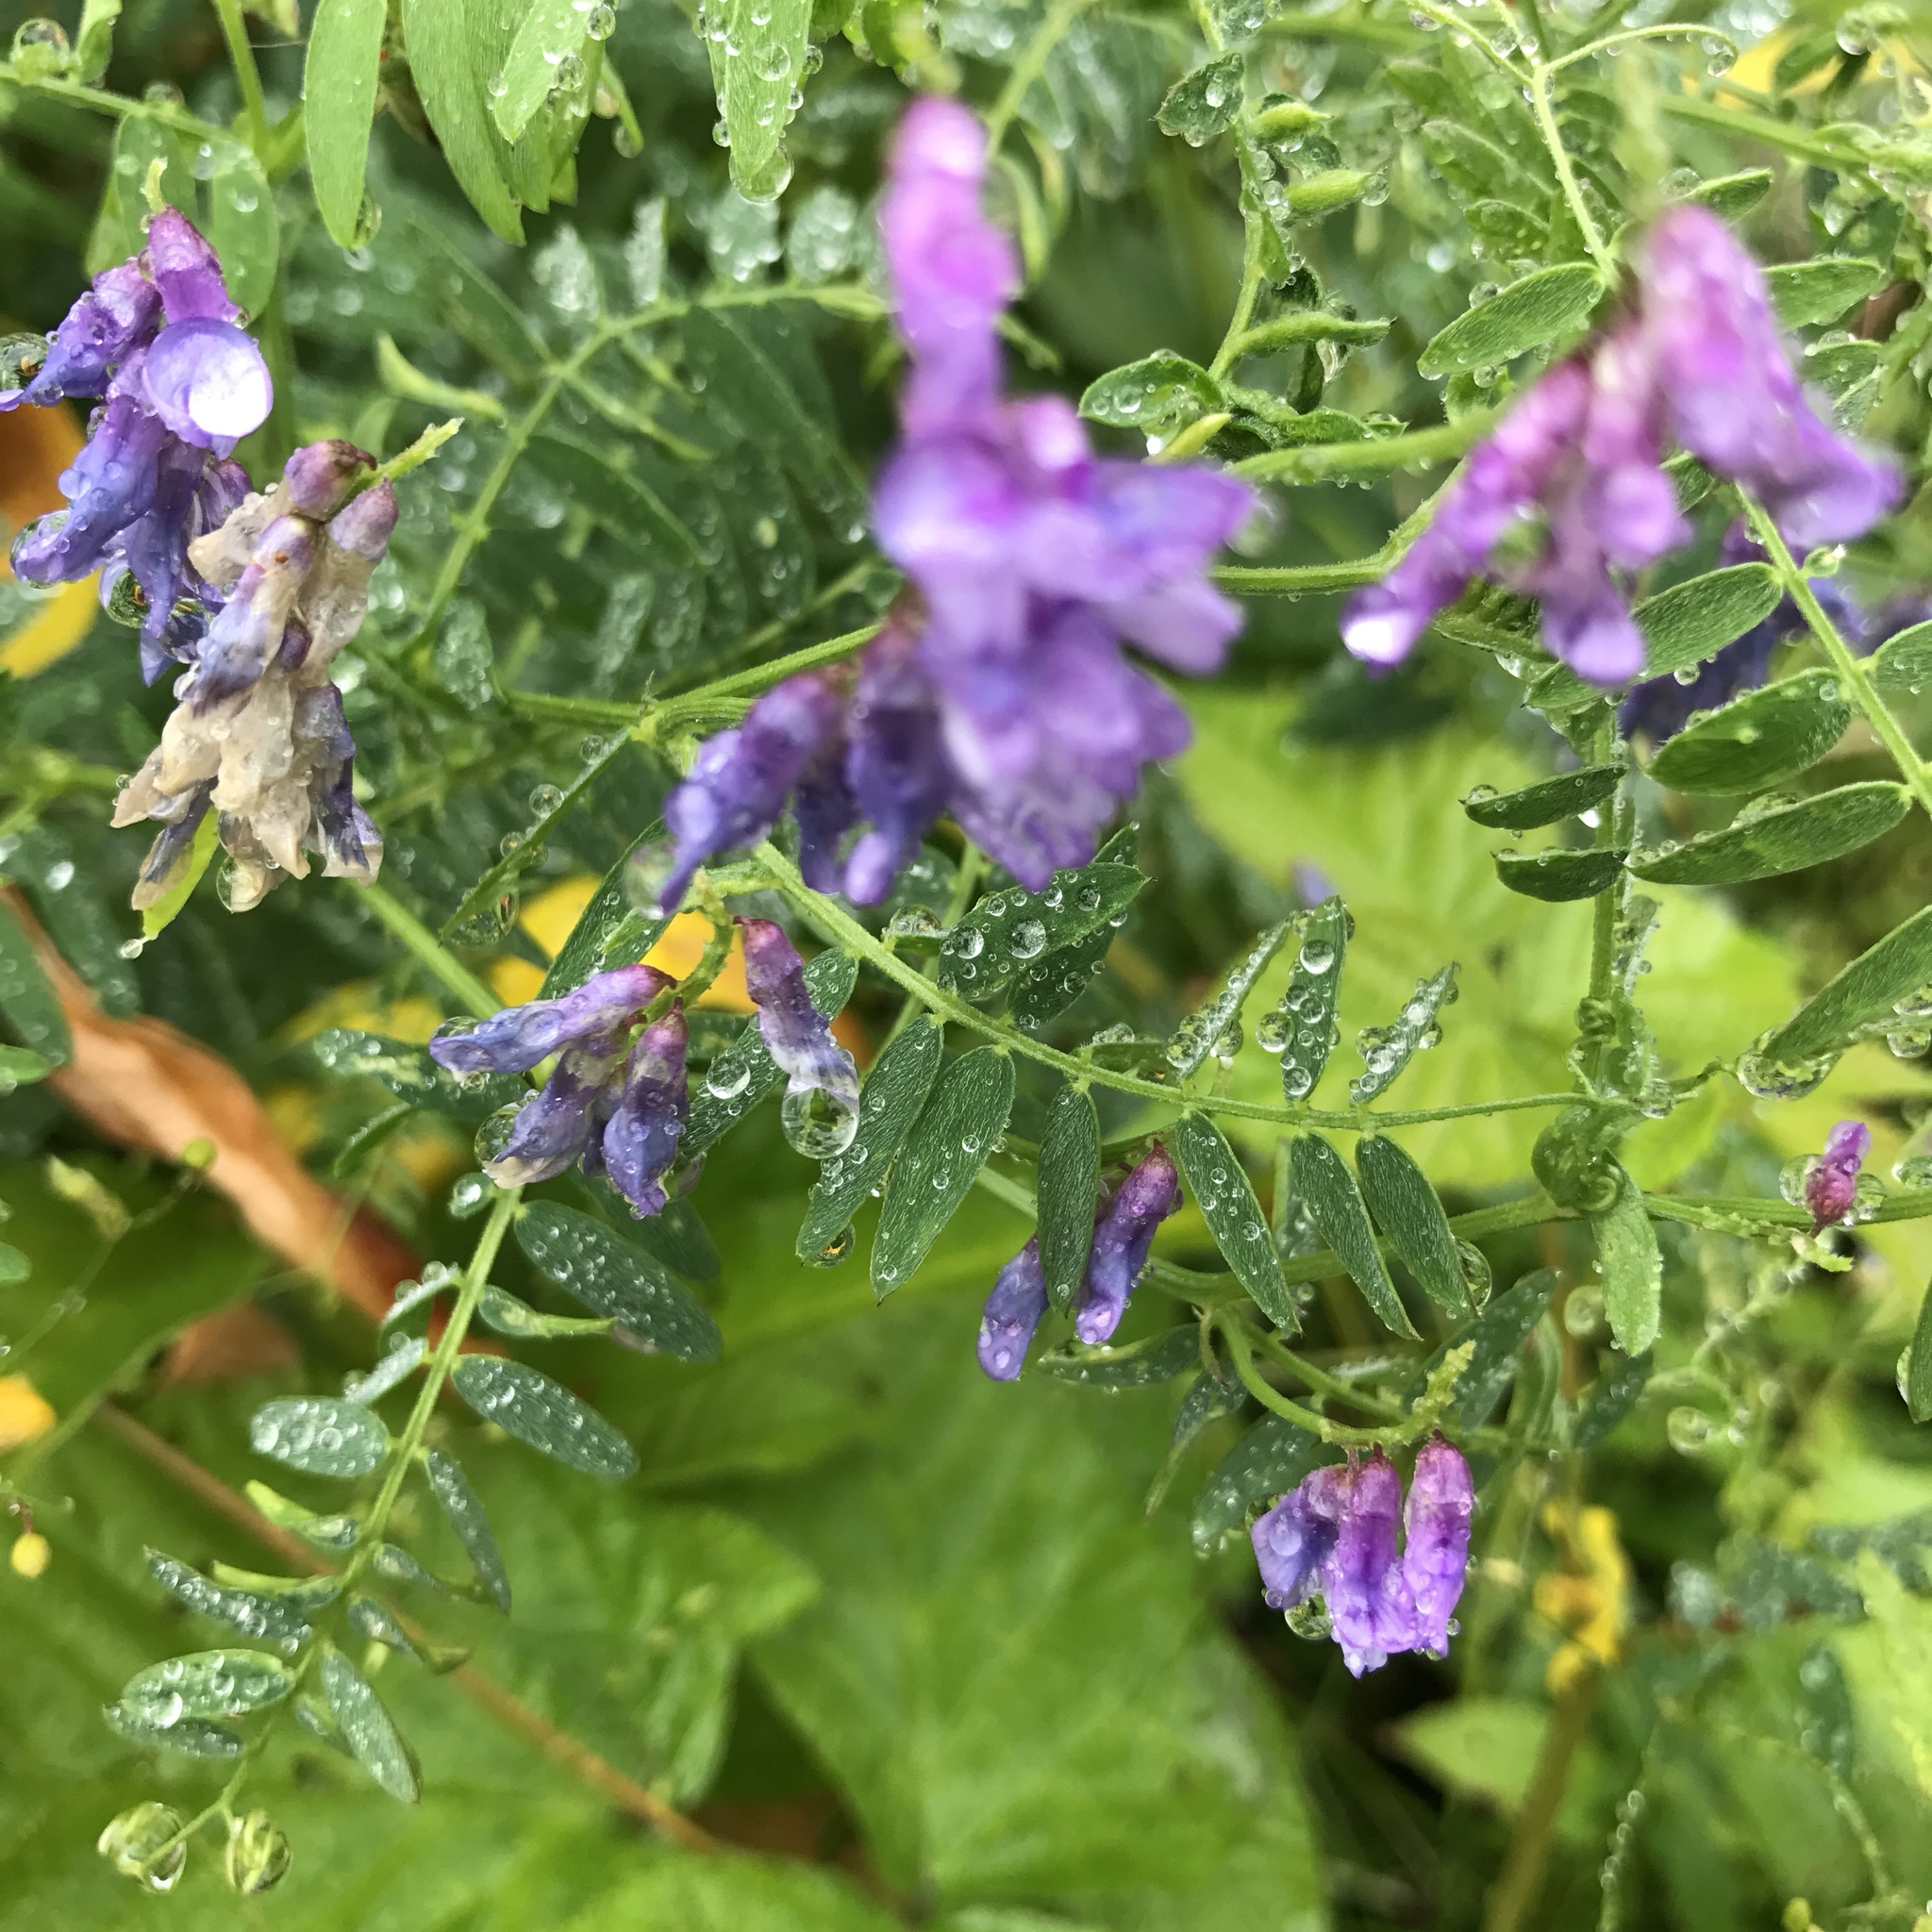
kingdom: Plantae
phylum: Tracheophyta
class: Magnoliopsida
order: Fabales
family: Fabaceae
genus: Vicia
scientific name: Vicia cracca
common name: Bird vetch
